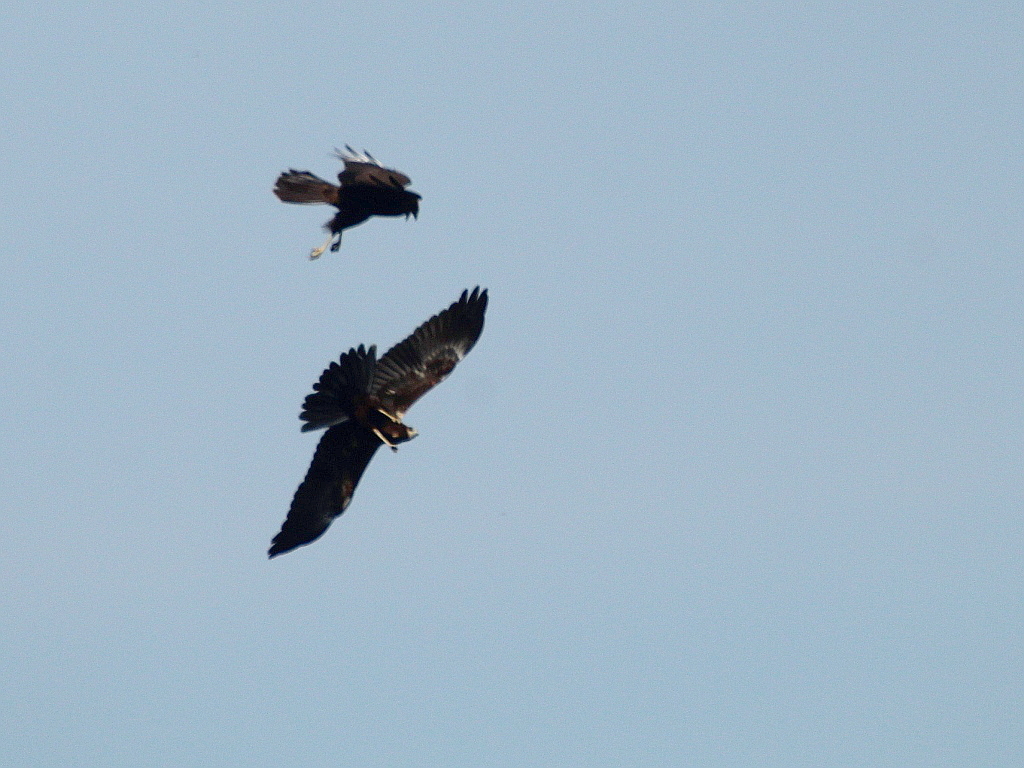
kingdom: Animalia
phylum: Chordata
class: Aves
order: Accipitriformes
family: Accipitridae
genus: Circus
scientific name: Circus aeruginosus
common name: Western marsh harrier
